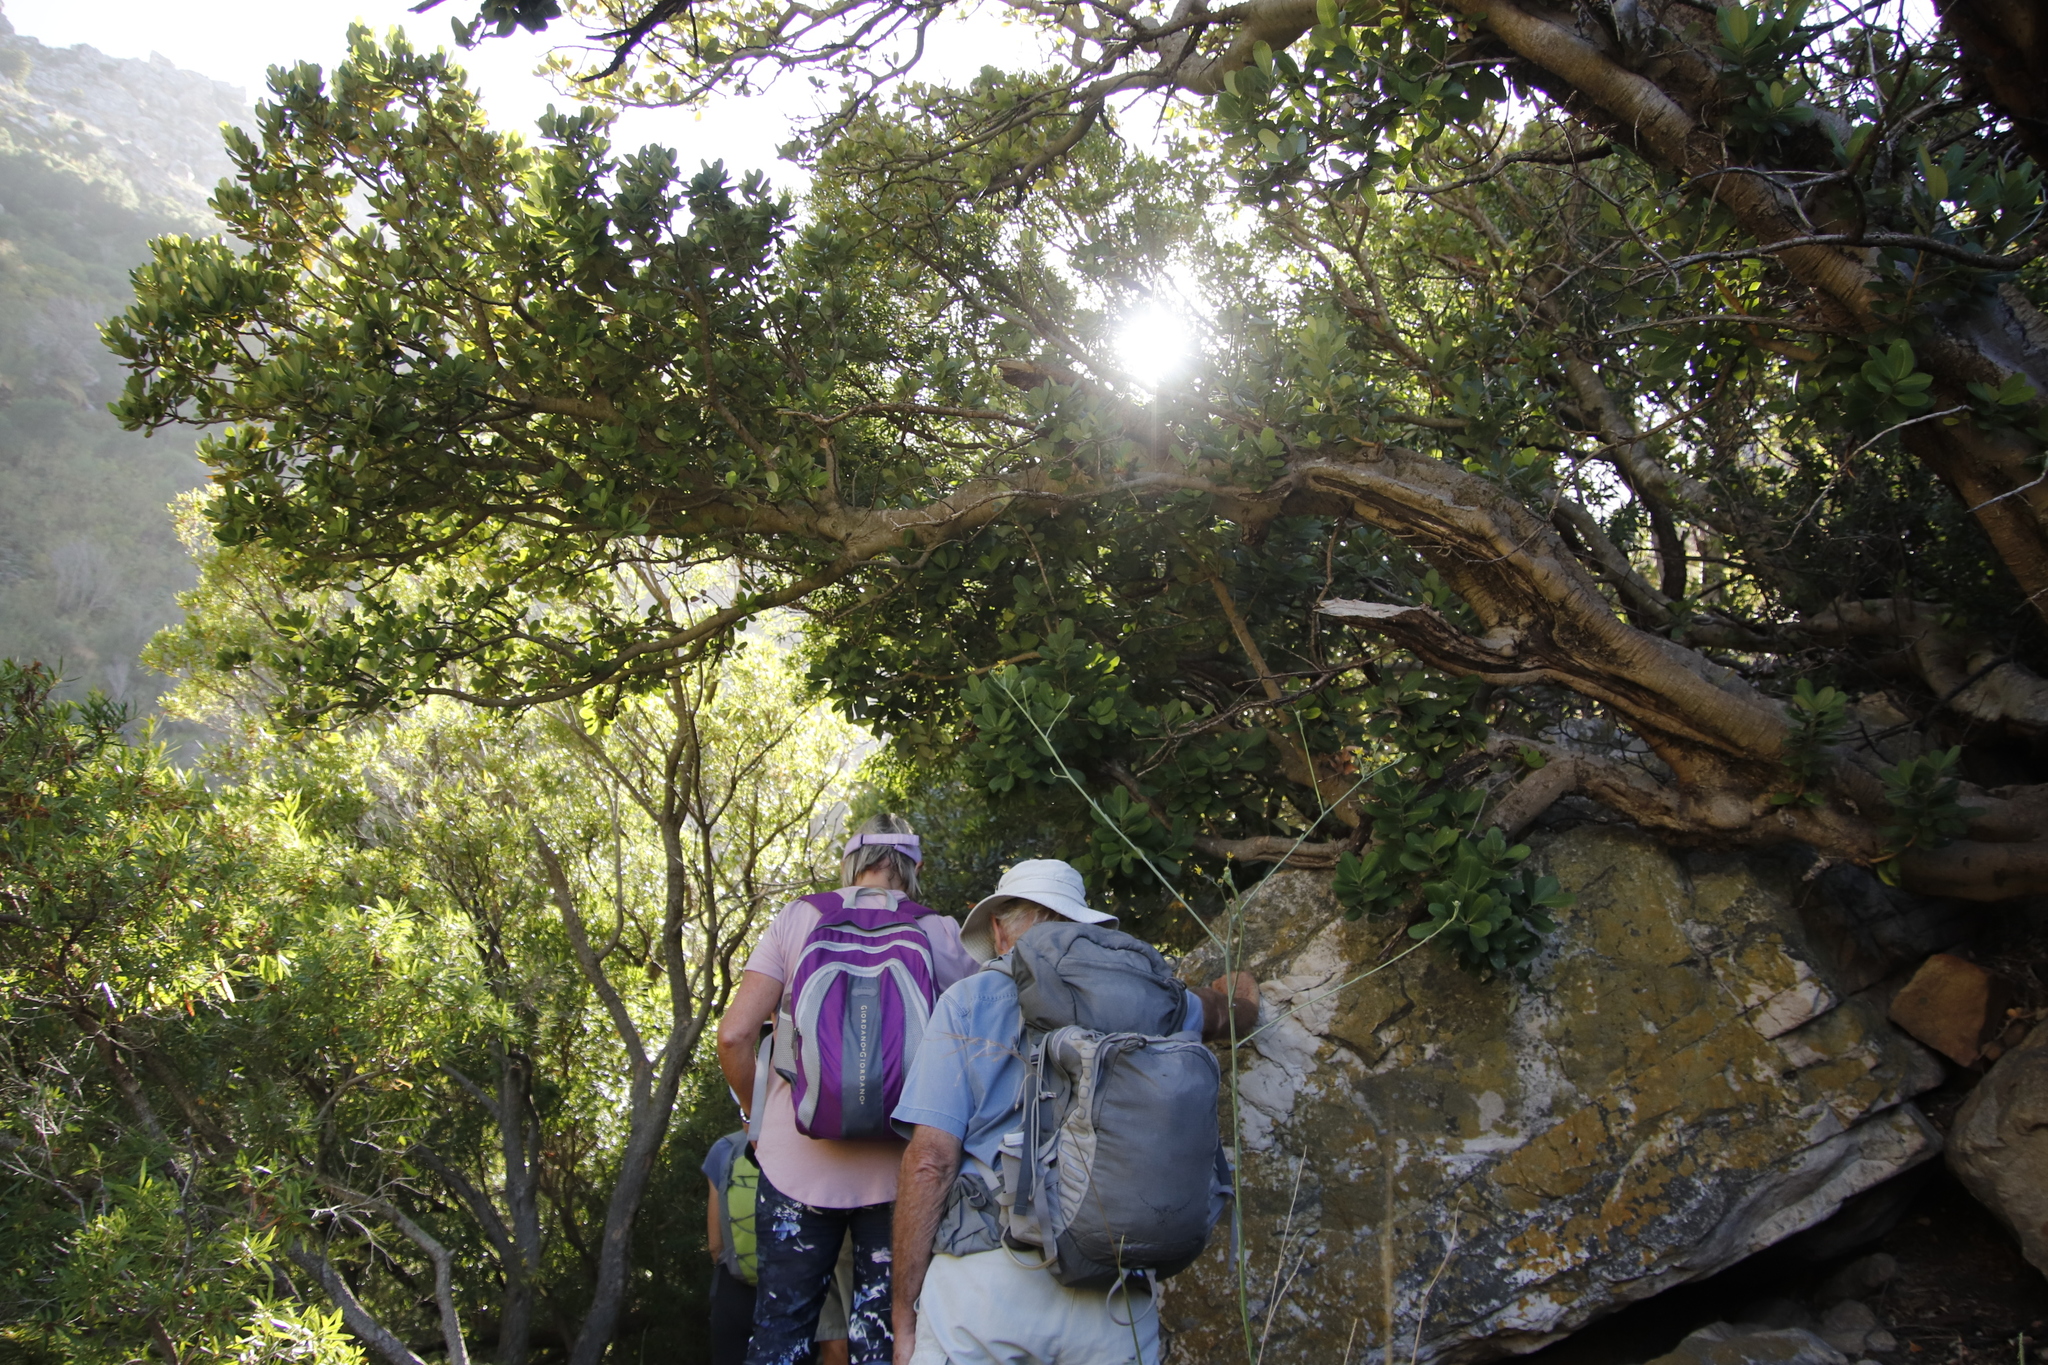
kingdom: Plantae
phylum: Tracheophyta
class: Magnoliopsida
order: Sapindales
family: Anacardiaceae
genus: Heeria
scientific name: Heeria argentea
